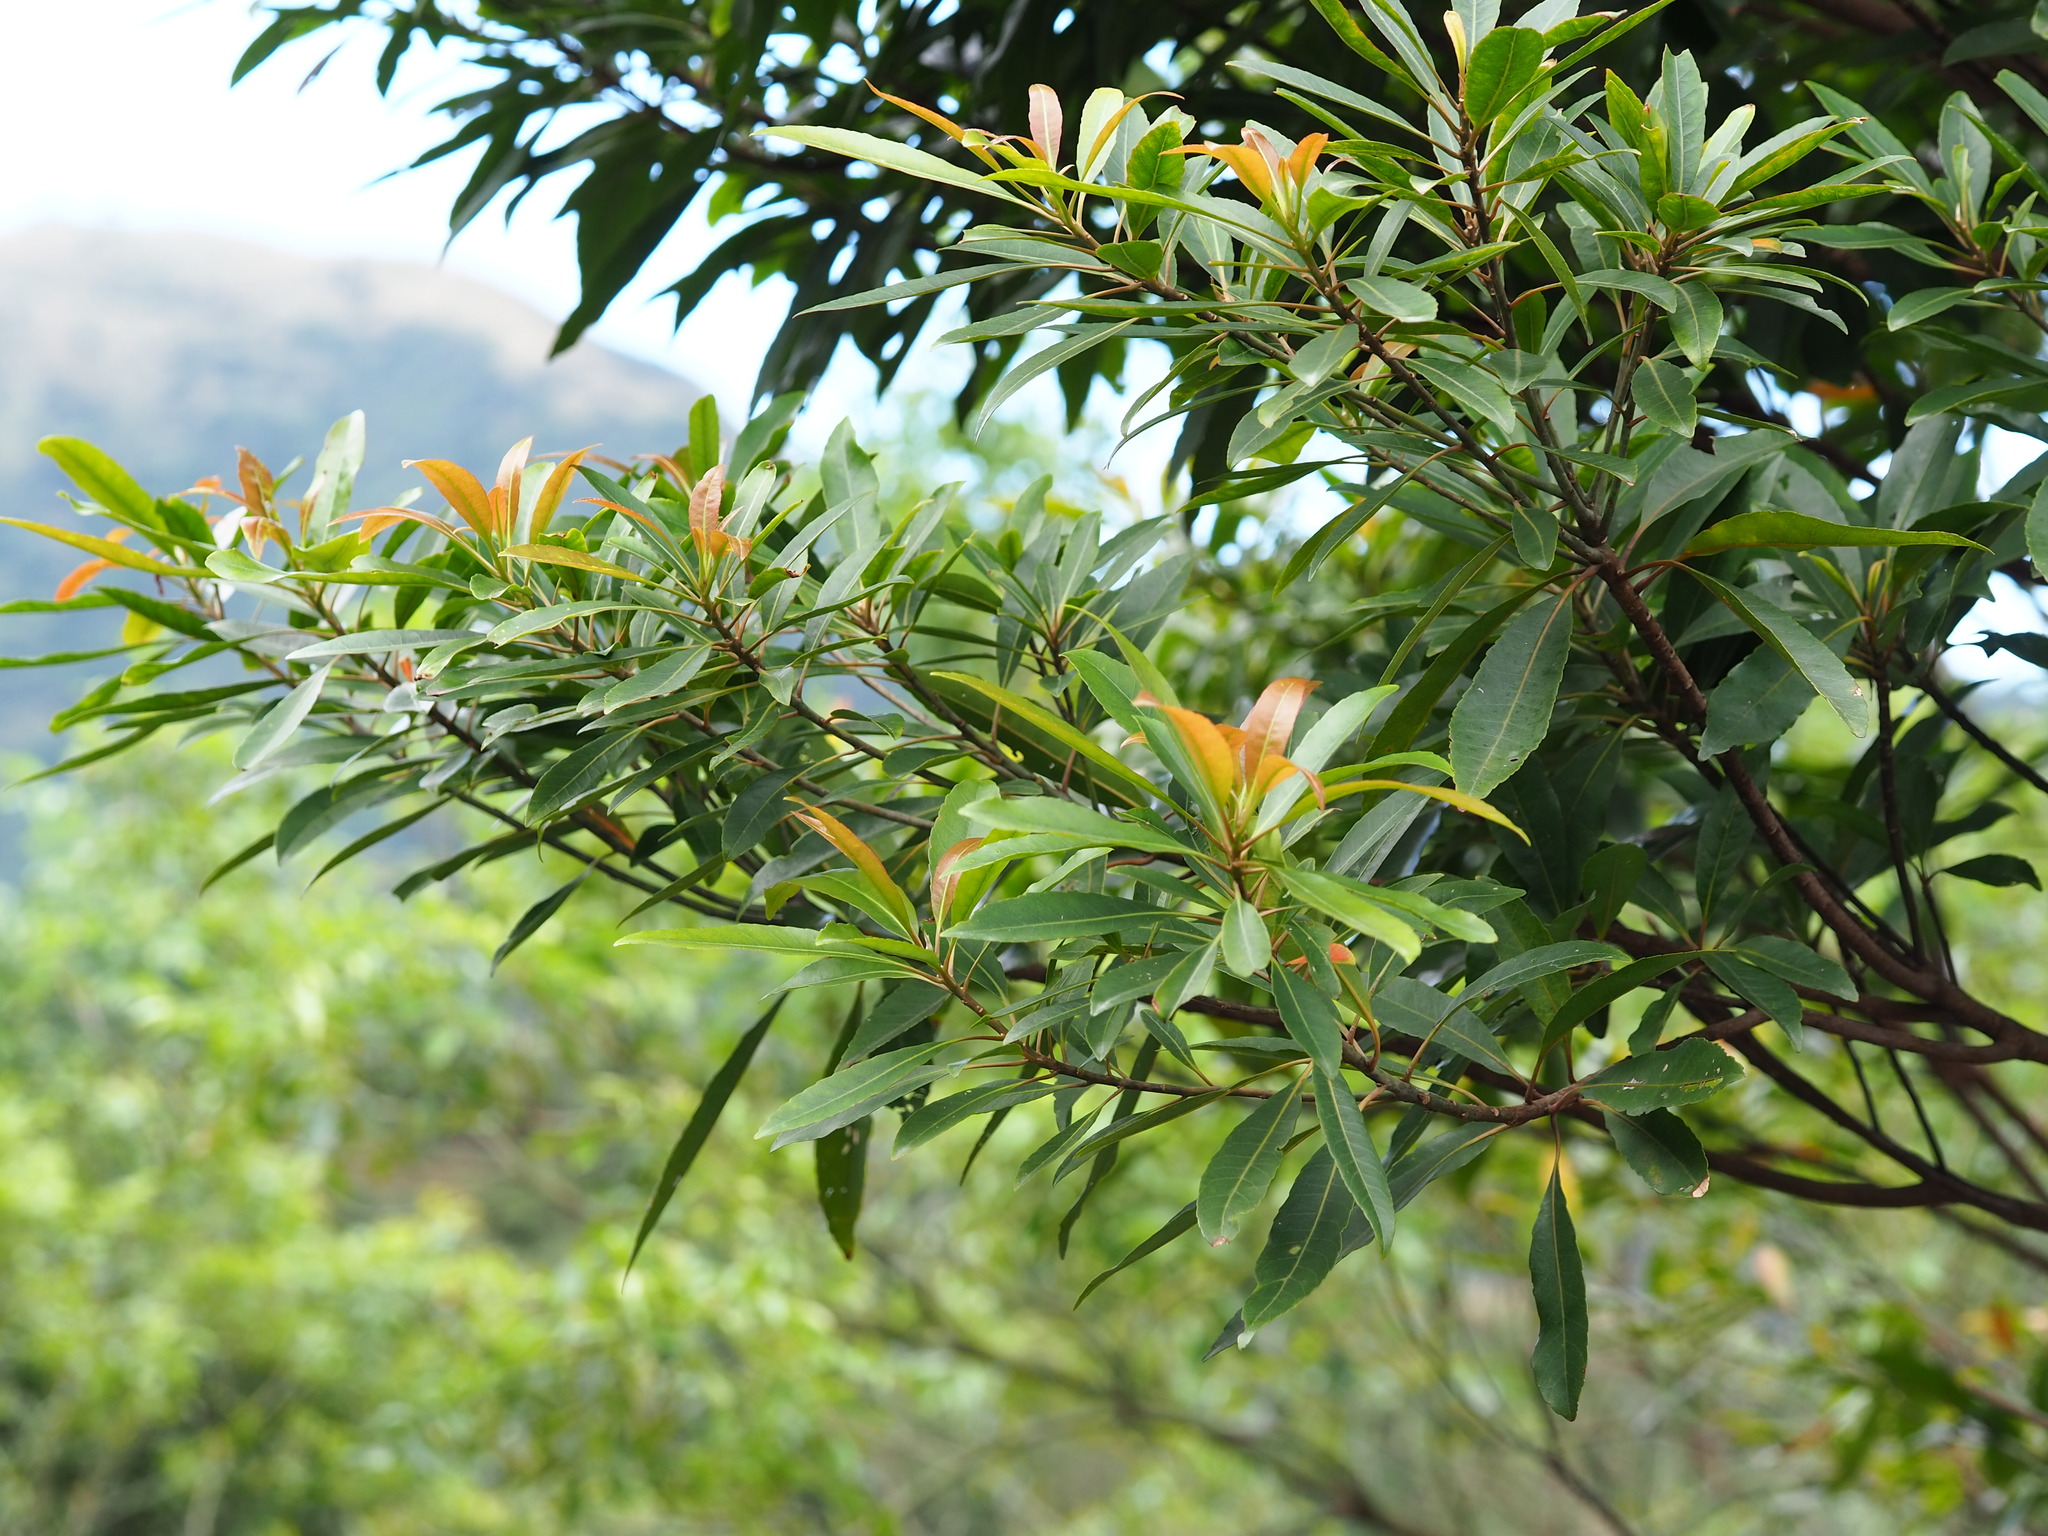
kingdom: Plantae
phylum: Tracheophyta
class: Magnoliopsida
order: Oxalidales
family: Elaeocarpaceae
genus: Elaeocarpus
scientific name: Elaeocarpus decipiens
